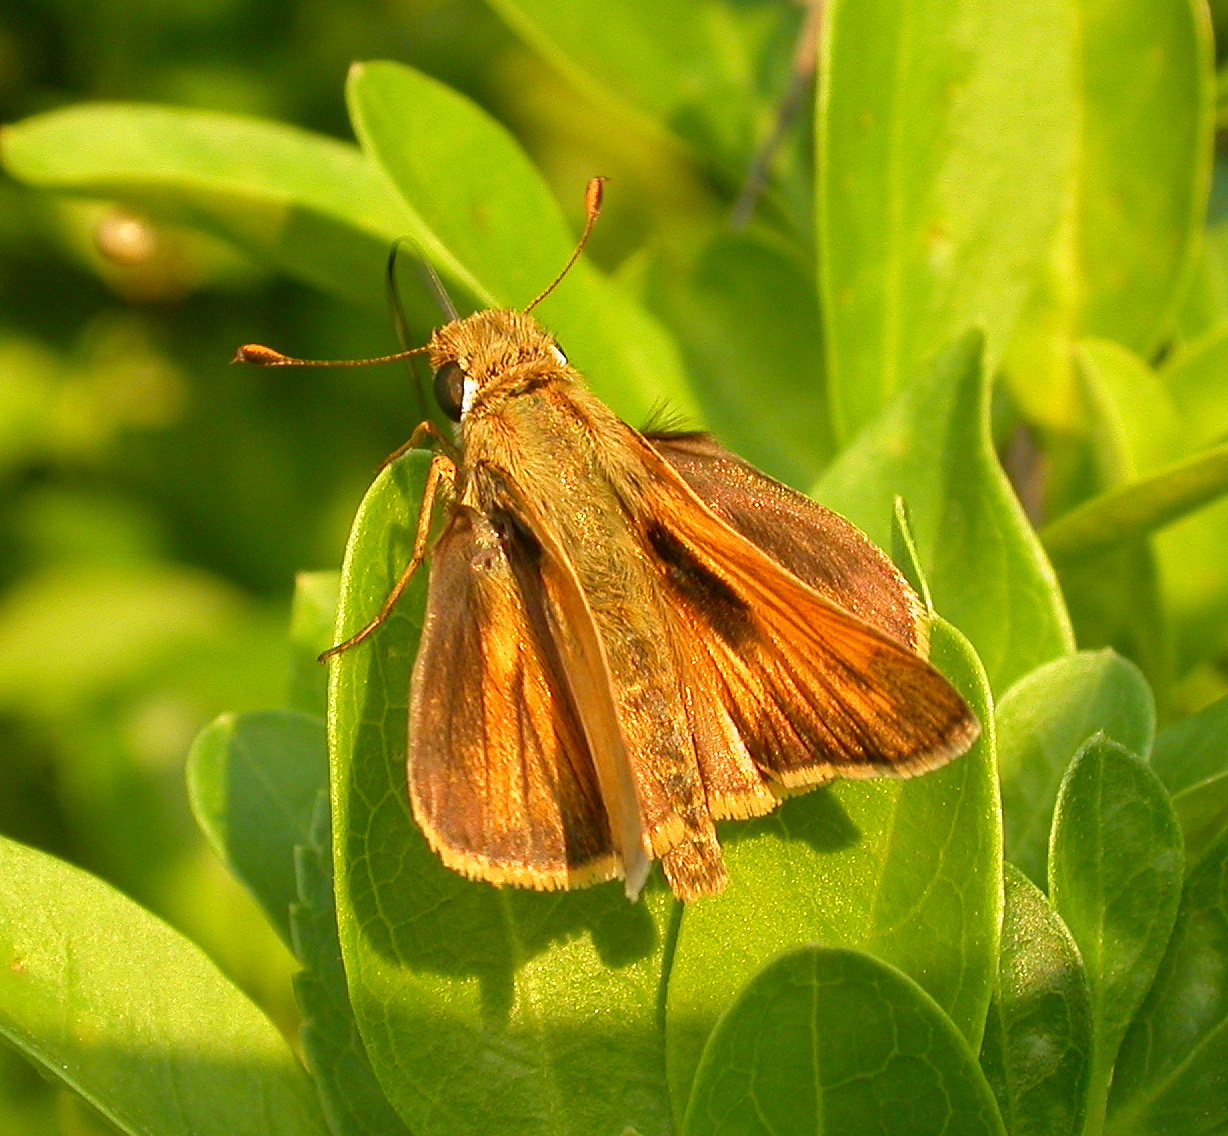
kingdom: Animalia
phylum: Arthropoda
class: Insecta
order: Lepidoptera
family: Hesperiidae
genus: Atalopedes
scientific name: Atalopedes
